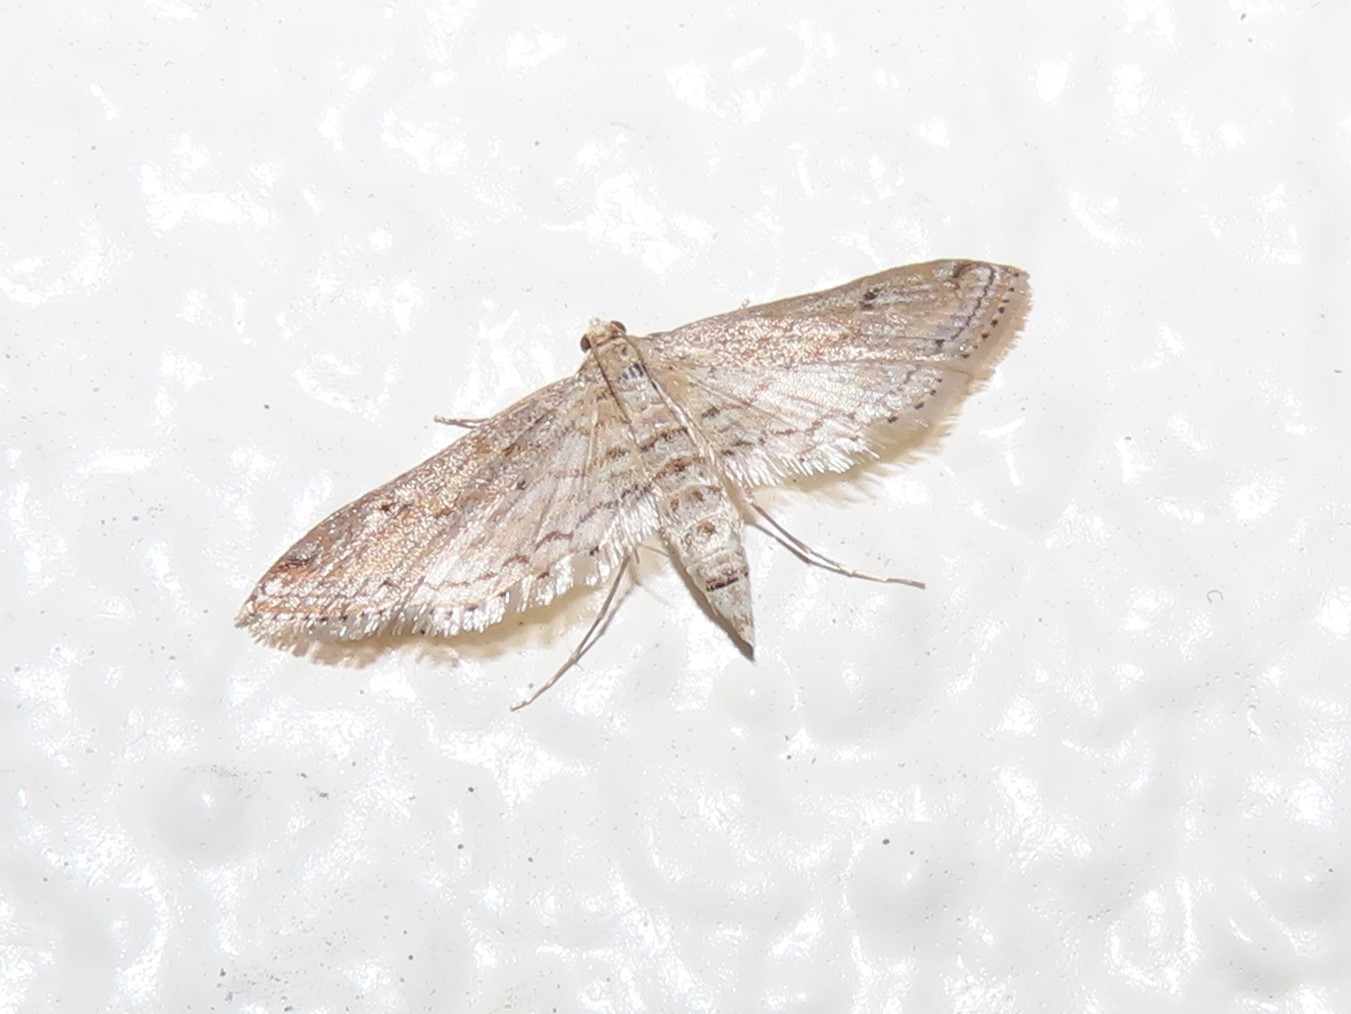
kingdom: Animalia
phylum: Arthropoda
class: Insecta
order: Lepidoptera
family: Crambidae
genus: Parapoynx
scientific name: Parapoynx allionealis
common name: Bladderwort casemaker
